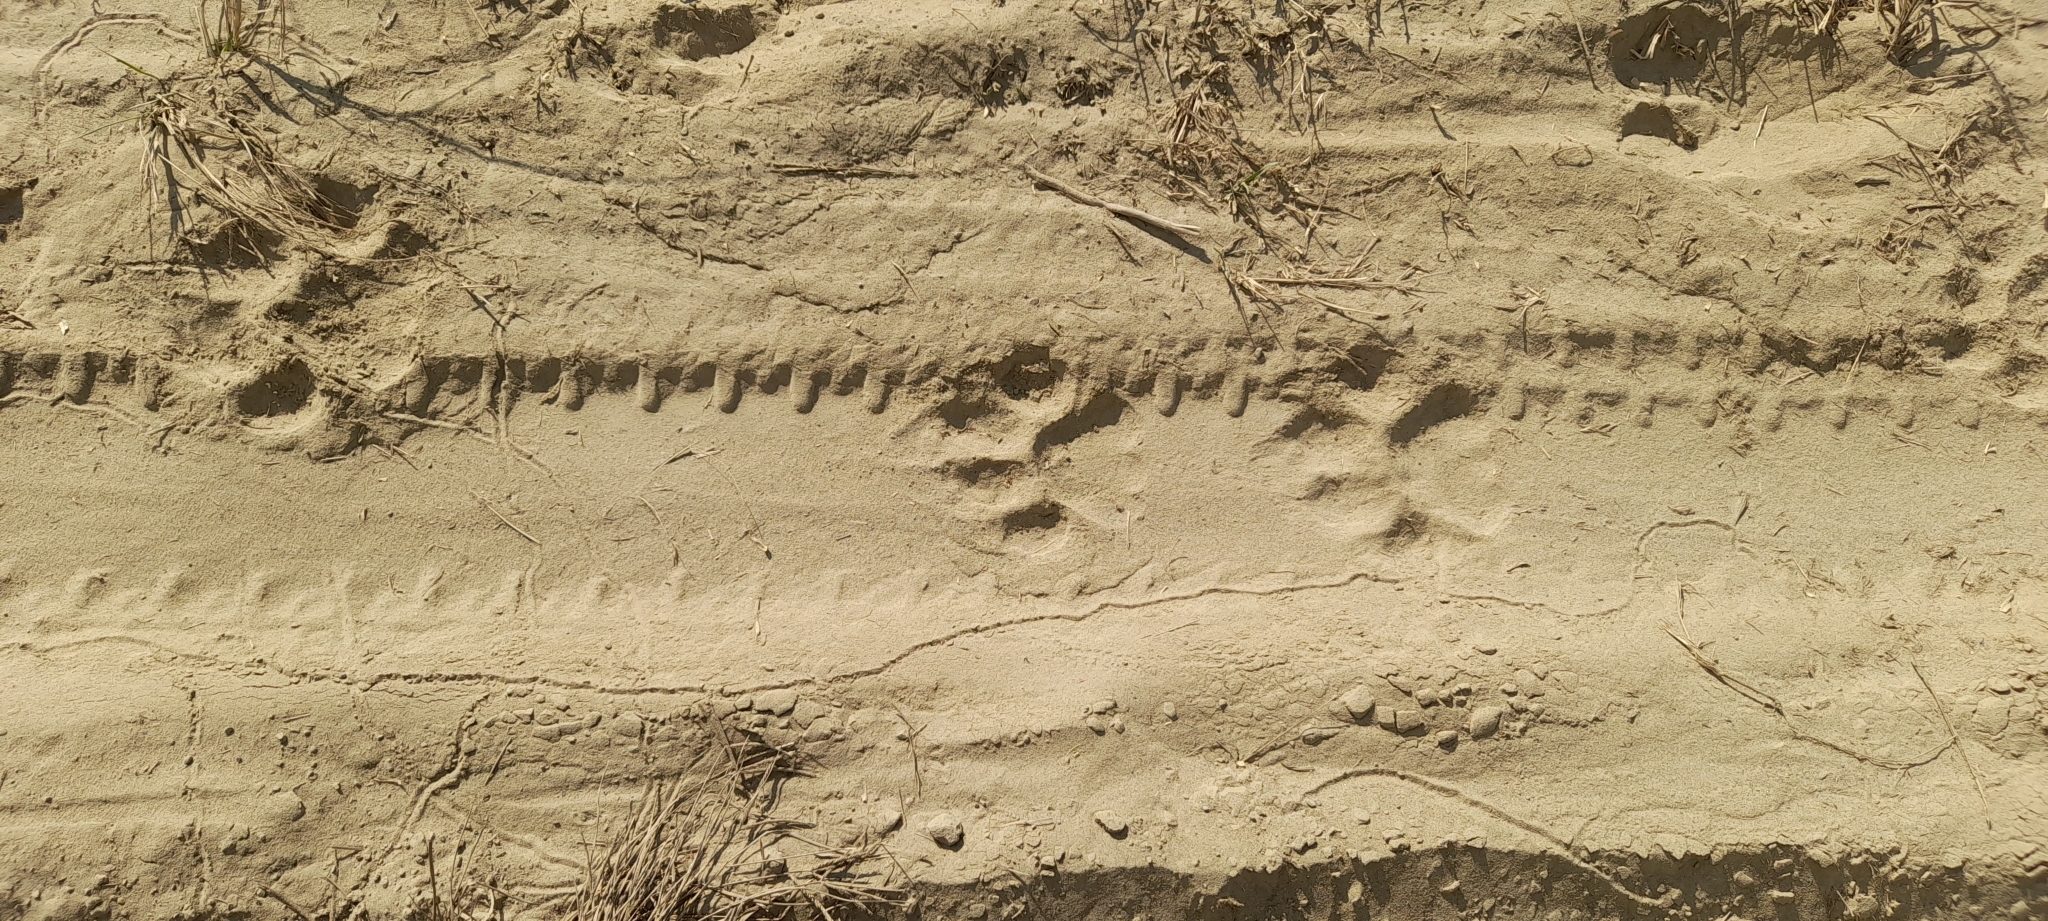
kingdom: Animalia
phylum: Chordata
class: Mammalia
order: Carnivora
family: Felidae
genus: Panthera
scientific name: Panthera tigris
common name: Tiger
